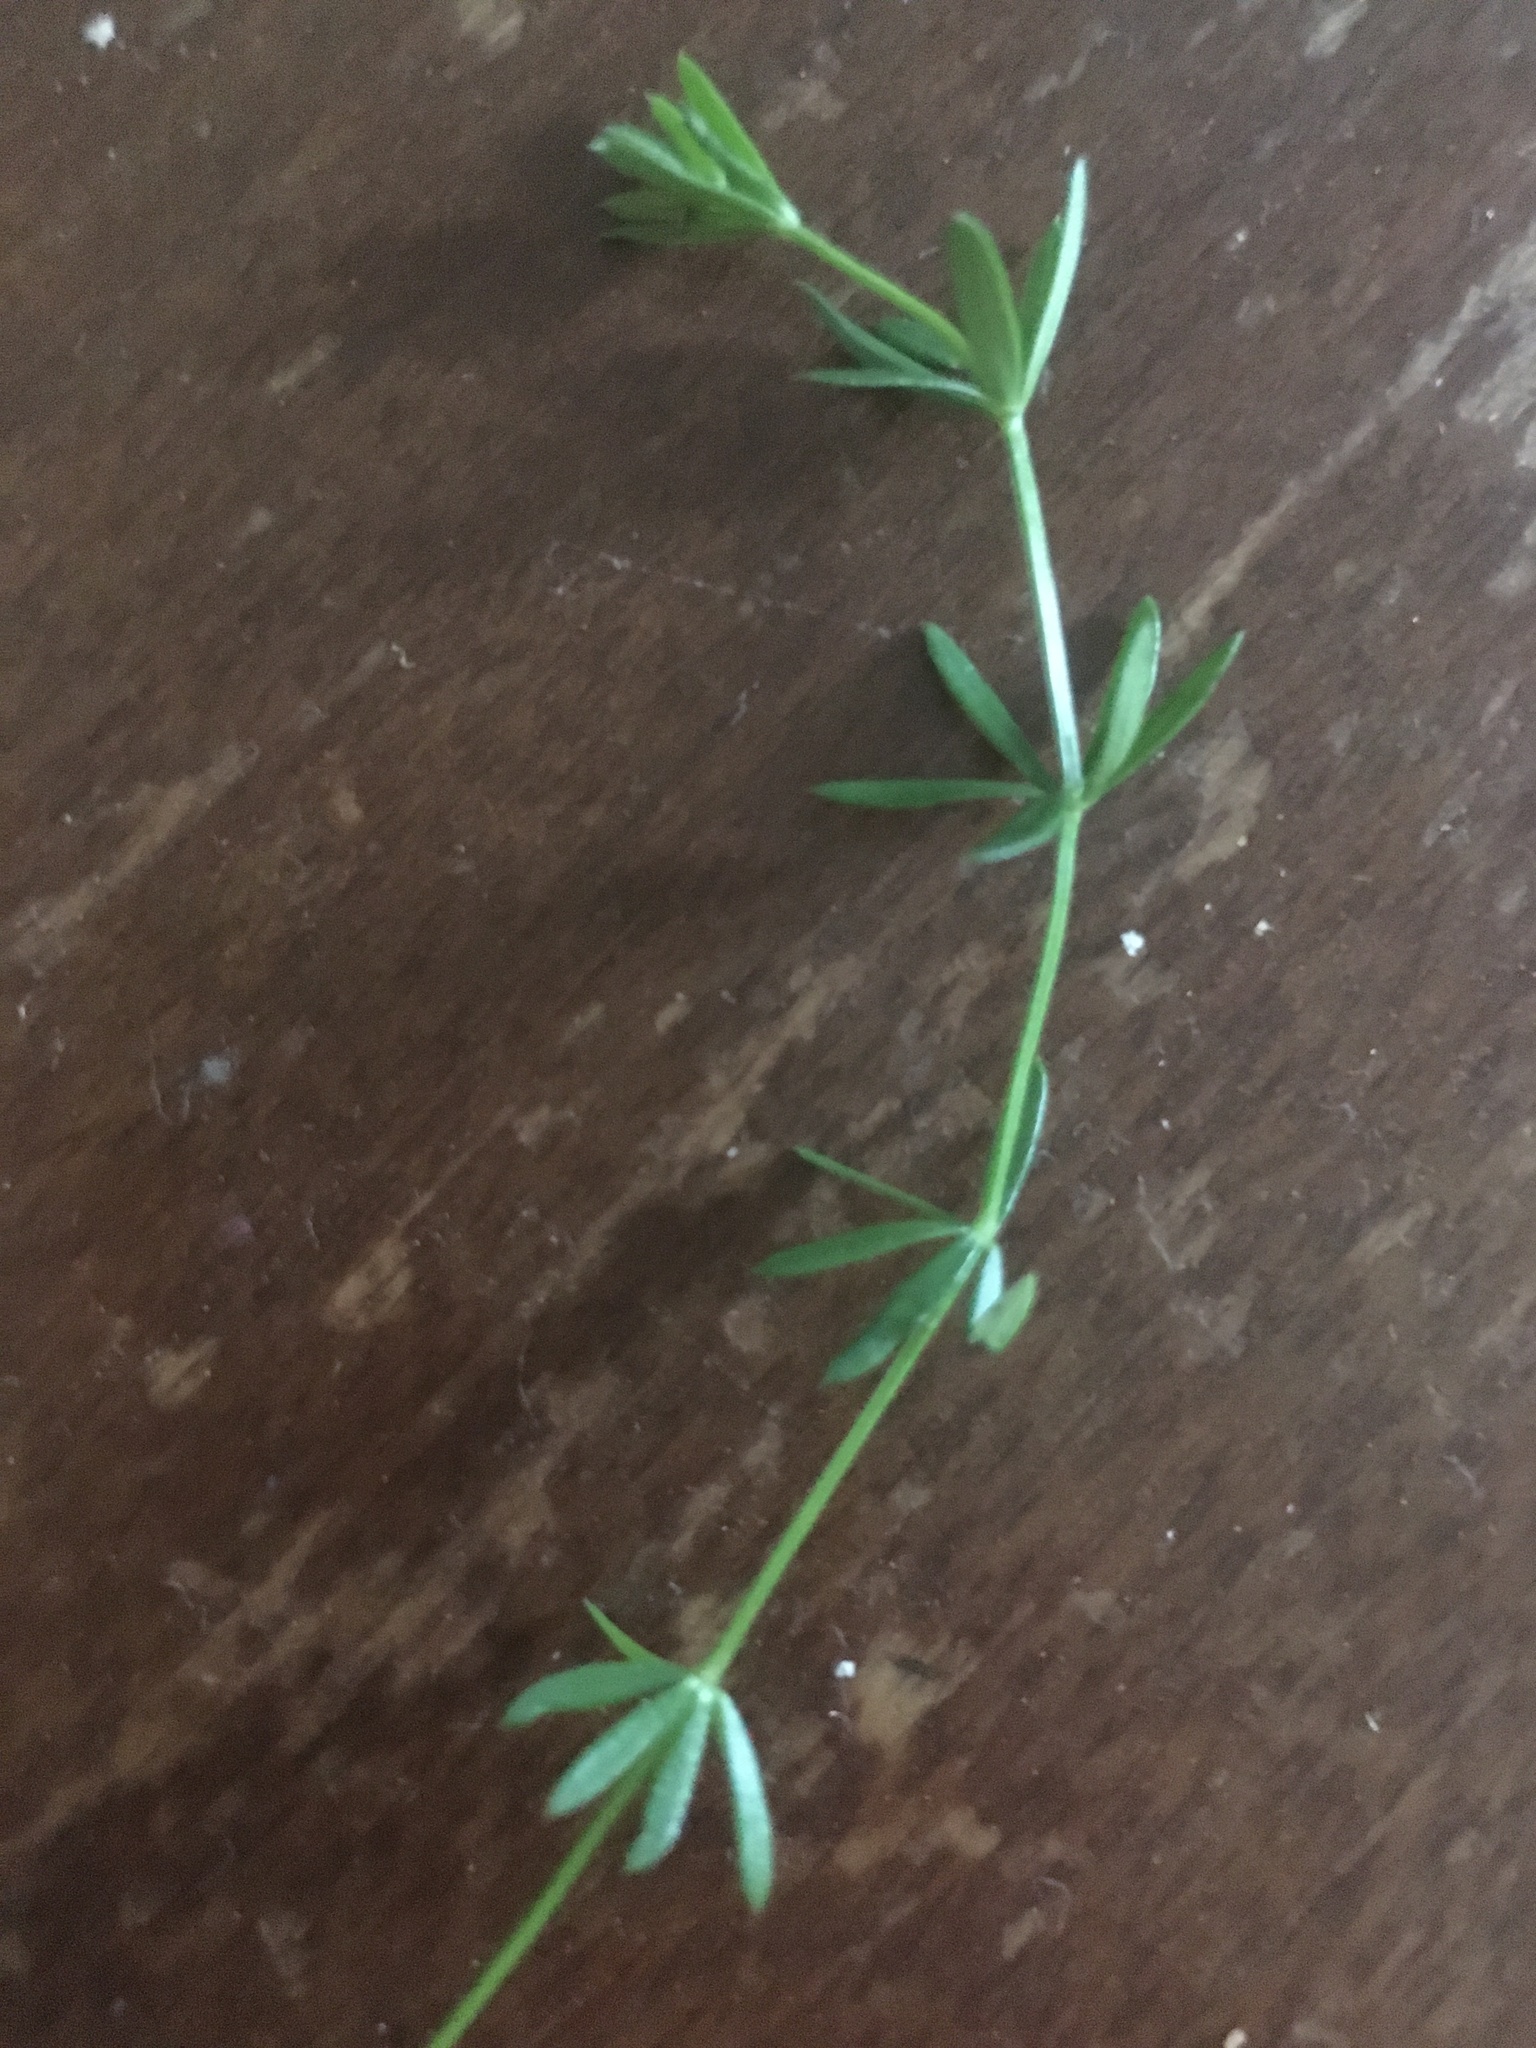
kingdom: Plantae
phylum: Tracheophyta
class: Magnoliopsida
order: Gentianales
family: Rubiaceae
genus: Galium
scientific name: Galium mollugo
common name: Hedge bedstraw
